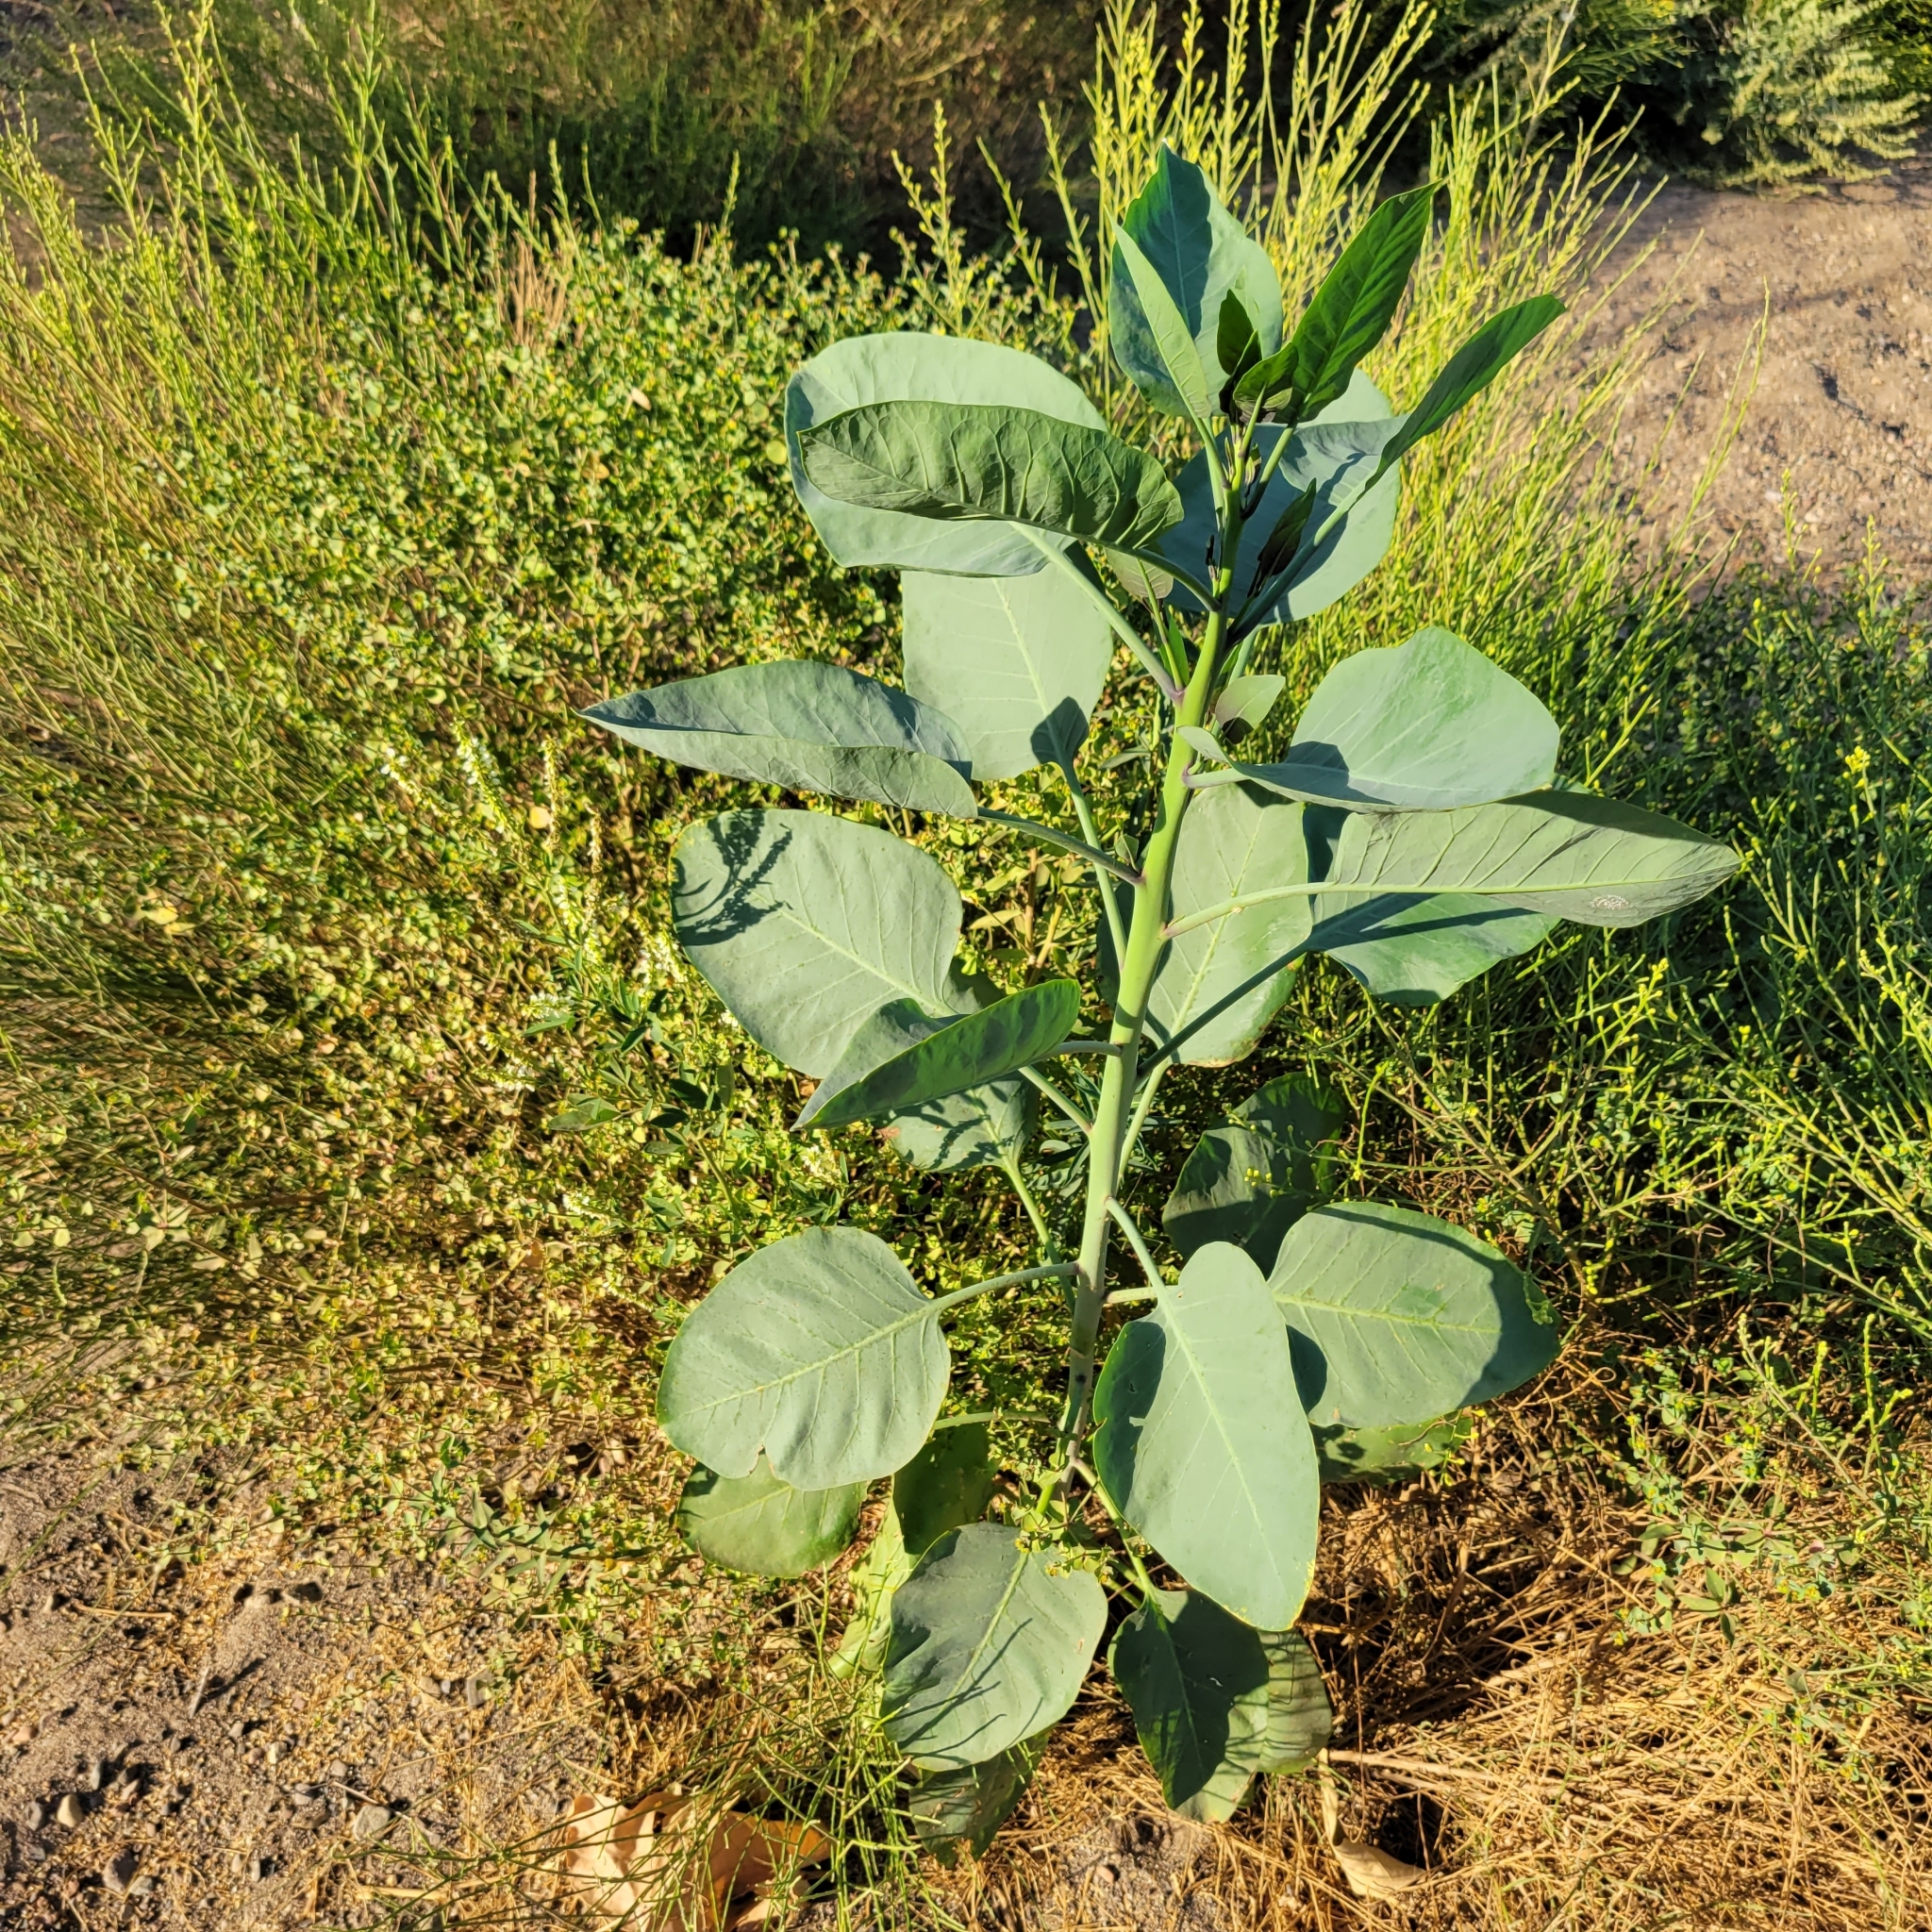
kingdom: Plantae
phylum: Tracheophyta
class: Magnoliopsida
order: Solanales
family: Solanaceae
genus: Nicotiana
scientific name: Nicotiana glauca
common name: Tree tobacco
